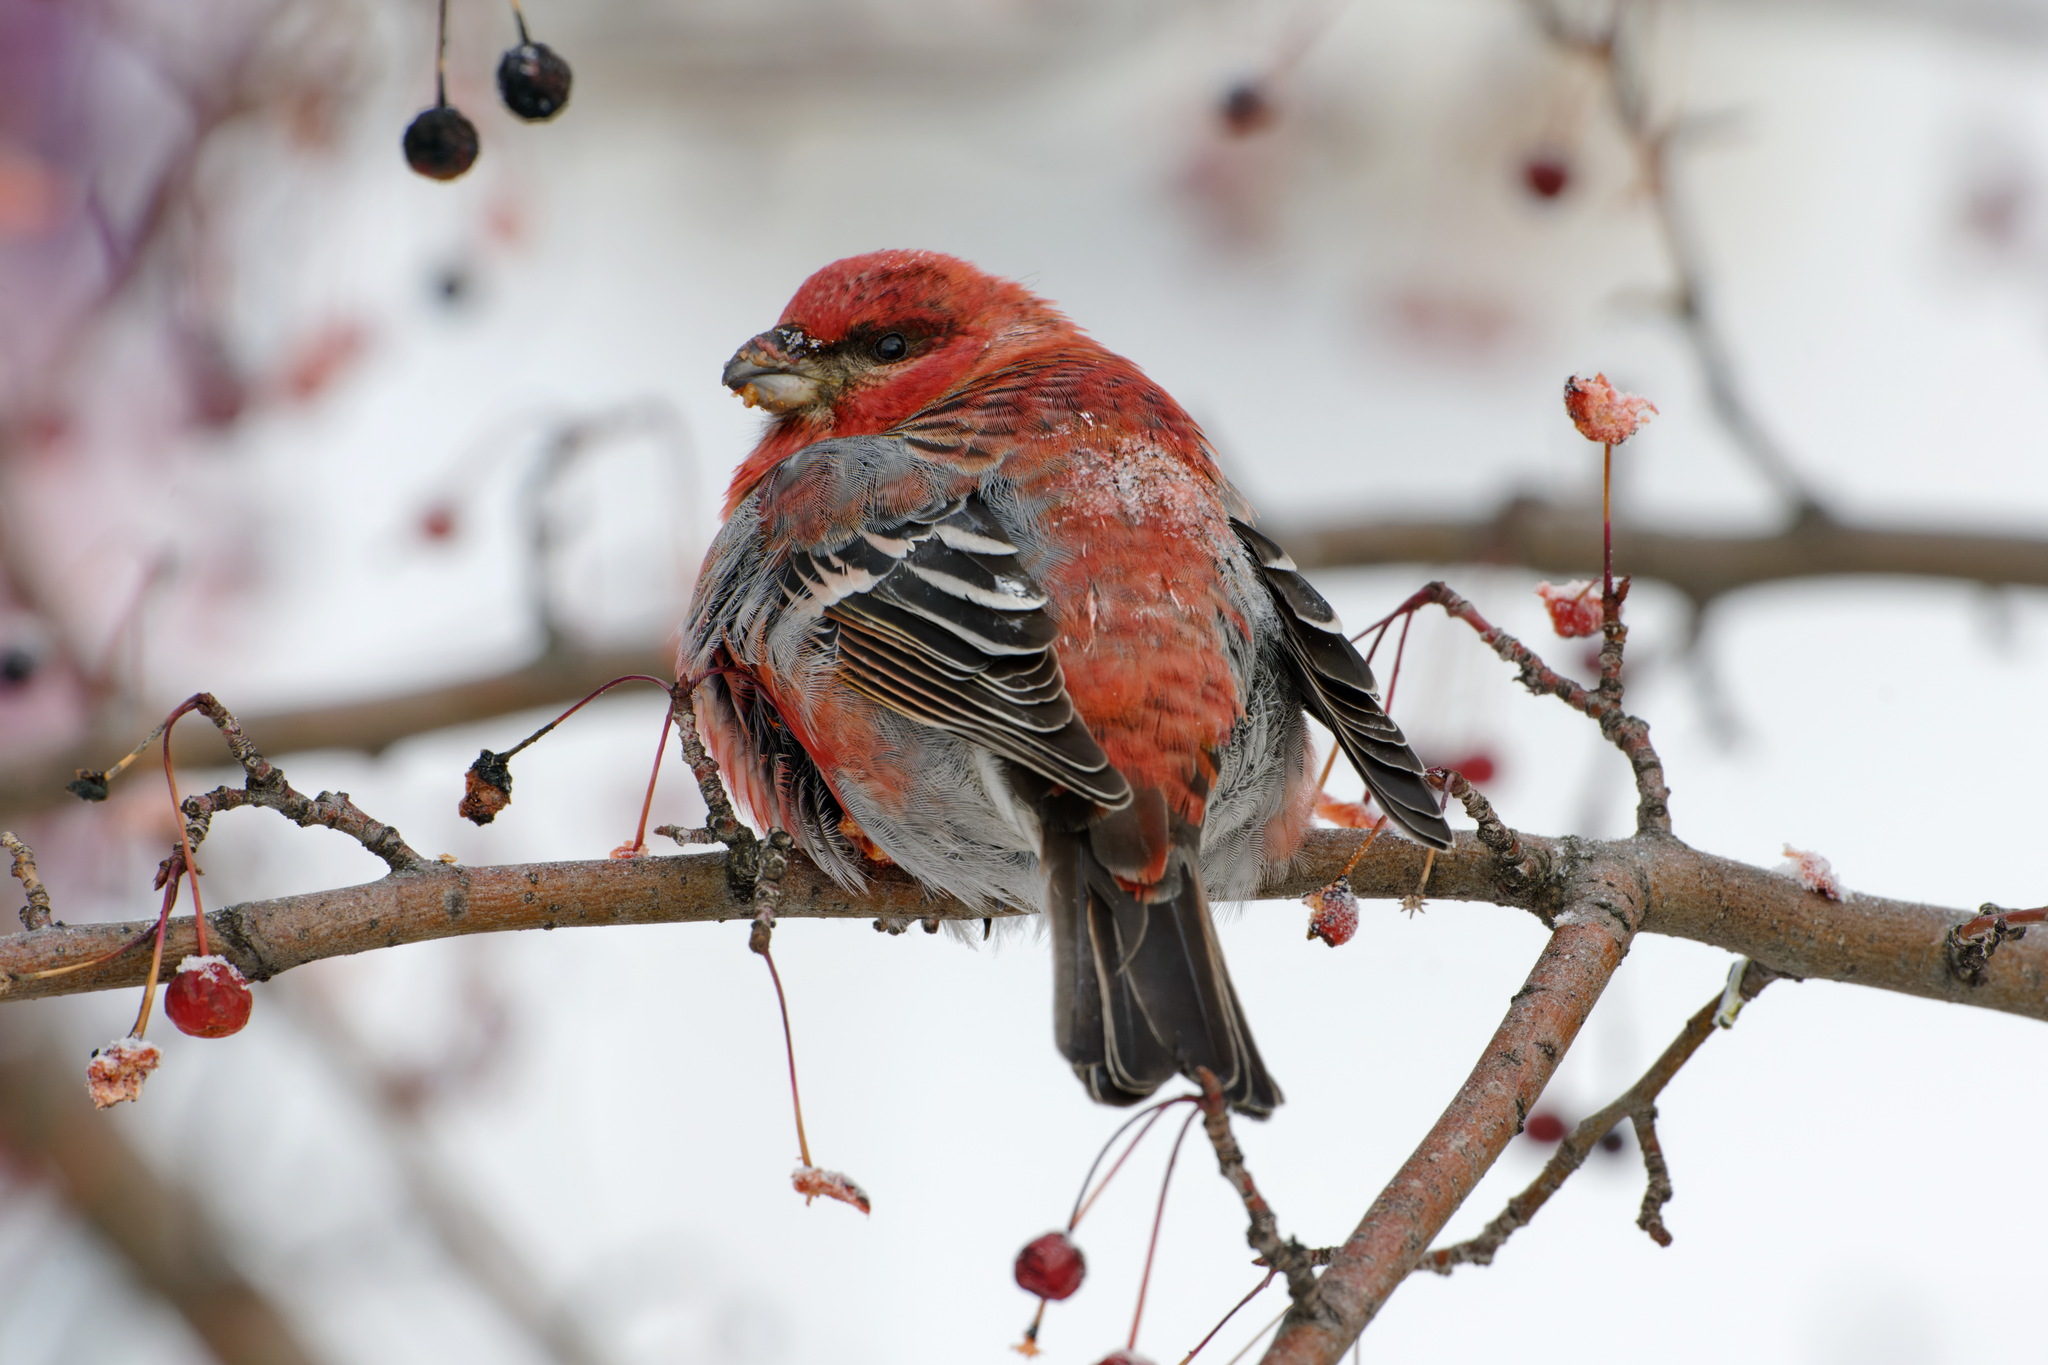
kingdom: Animalia
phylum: Chordata
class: Aves
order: Passeriformes
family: Fringillidae
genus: Pinicola
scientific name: Pinicola enucleator
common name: Pine grosbeak
